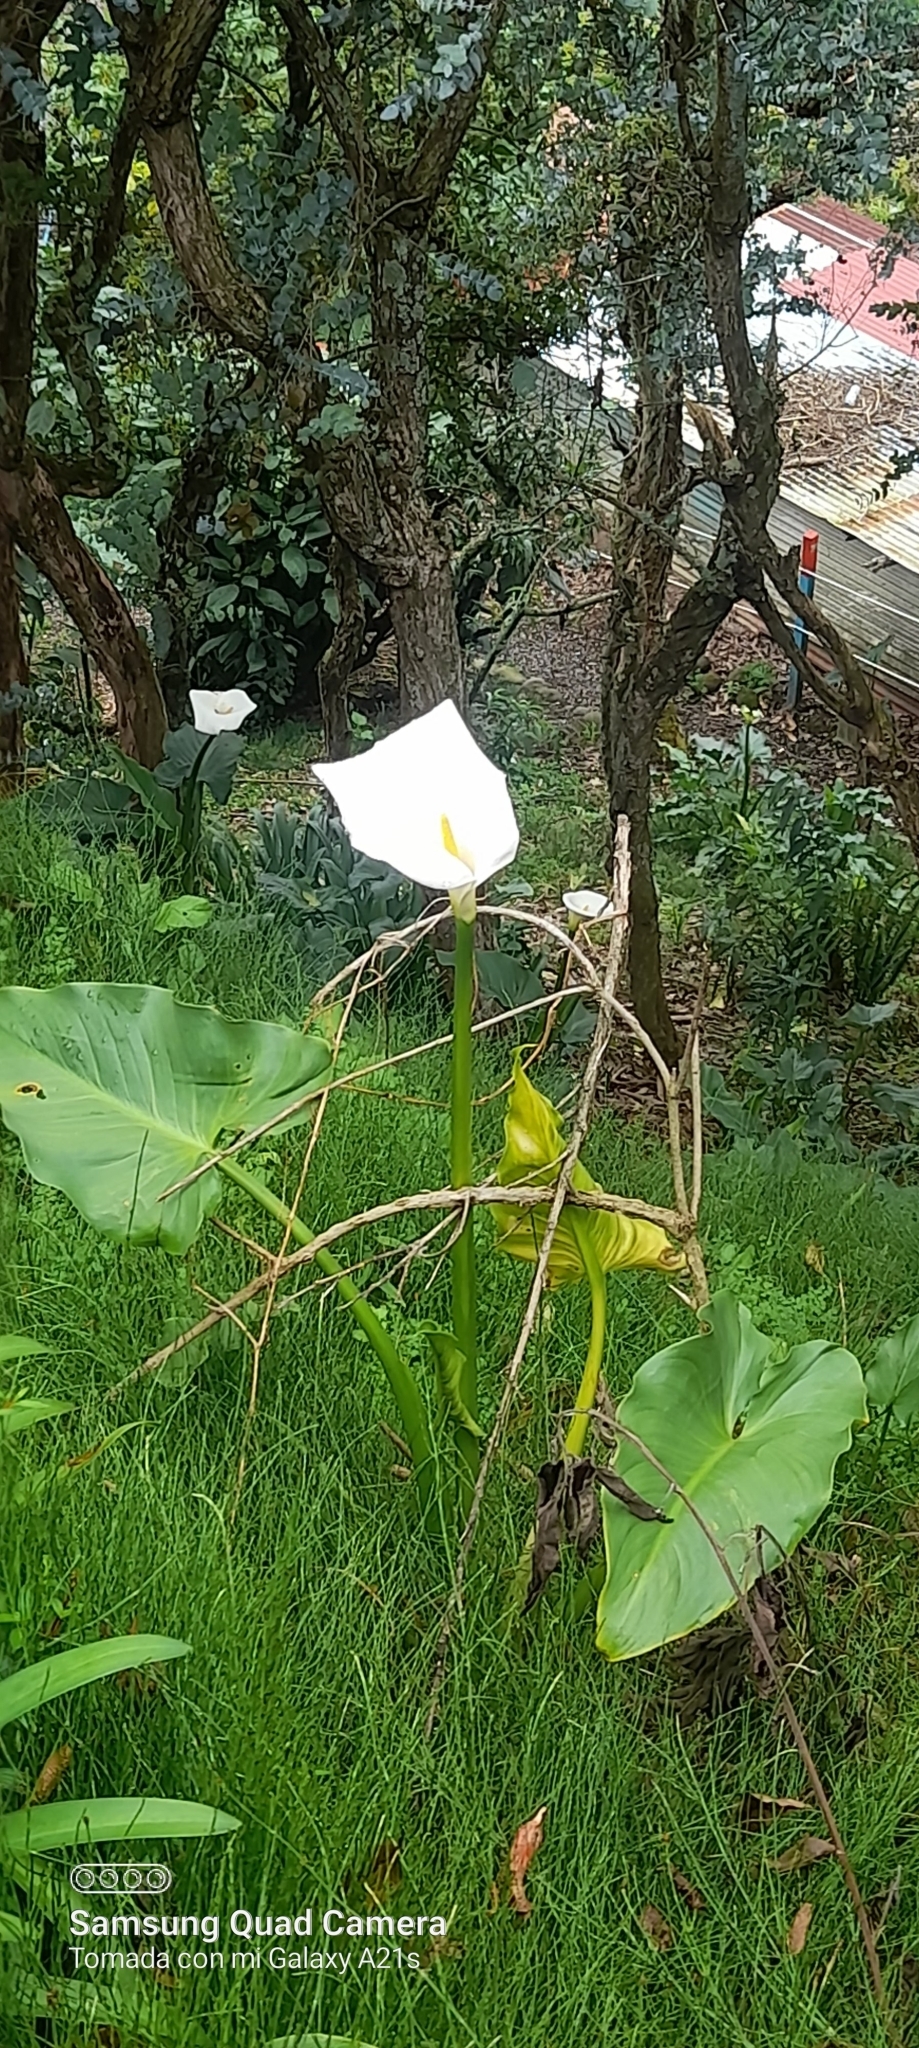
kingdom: Plantae
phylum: Tracheophyta
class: Liliopsida
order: Alismatales
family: Araceae
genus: Zantedeschia
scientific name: Zantedeschia aethiopica
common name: Altar-lily
